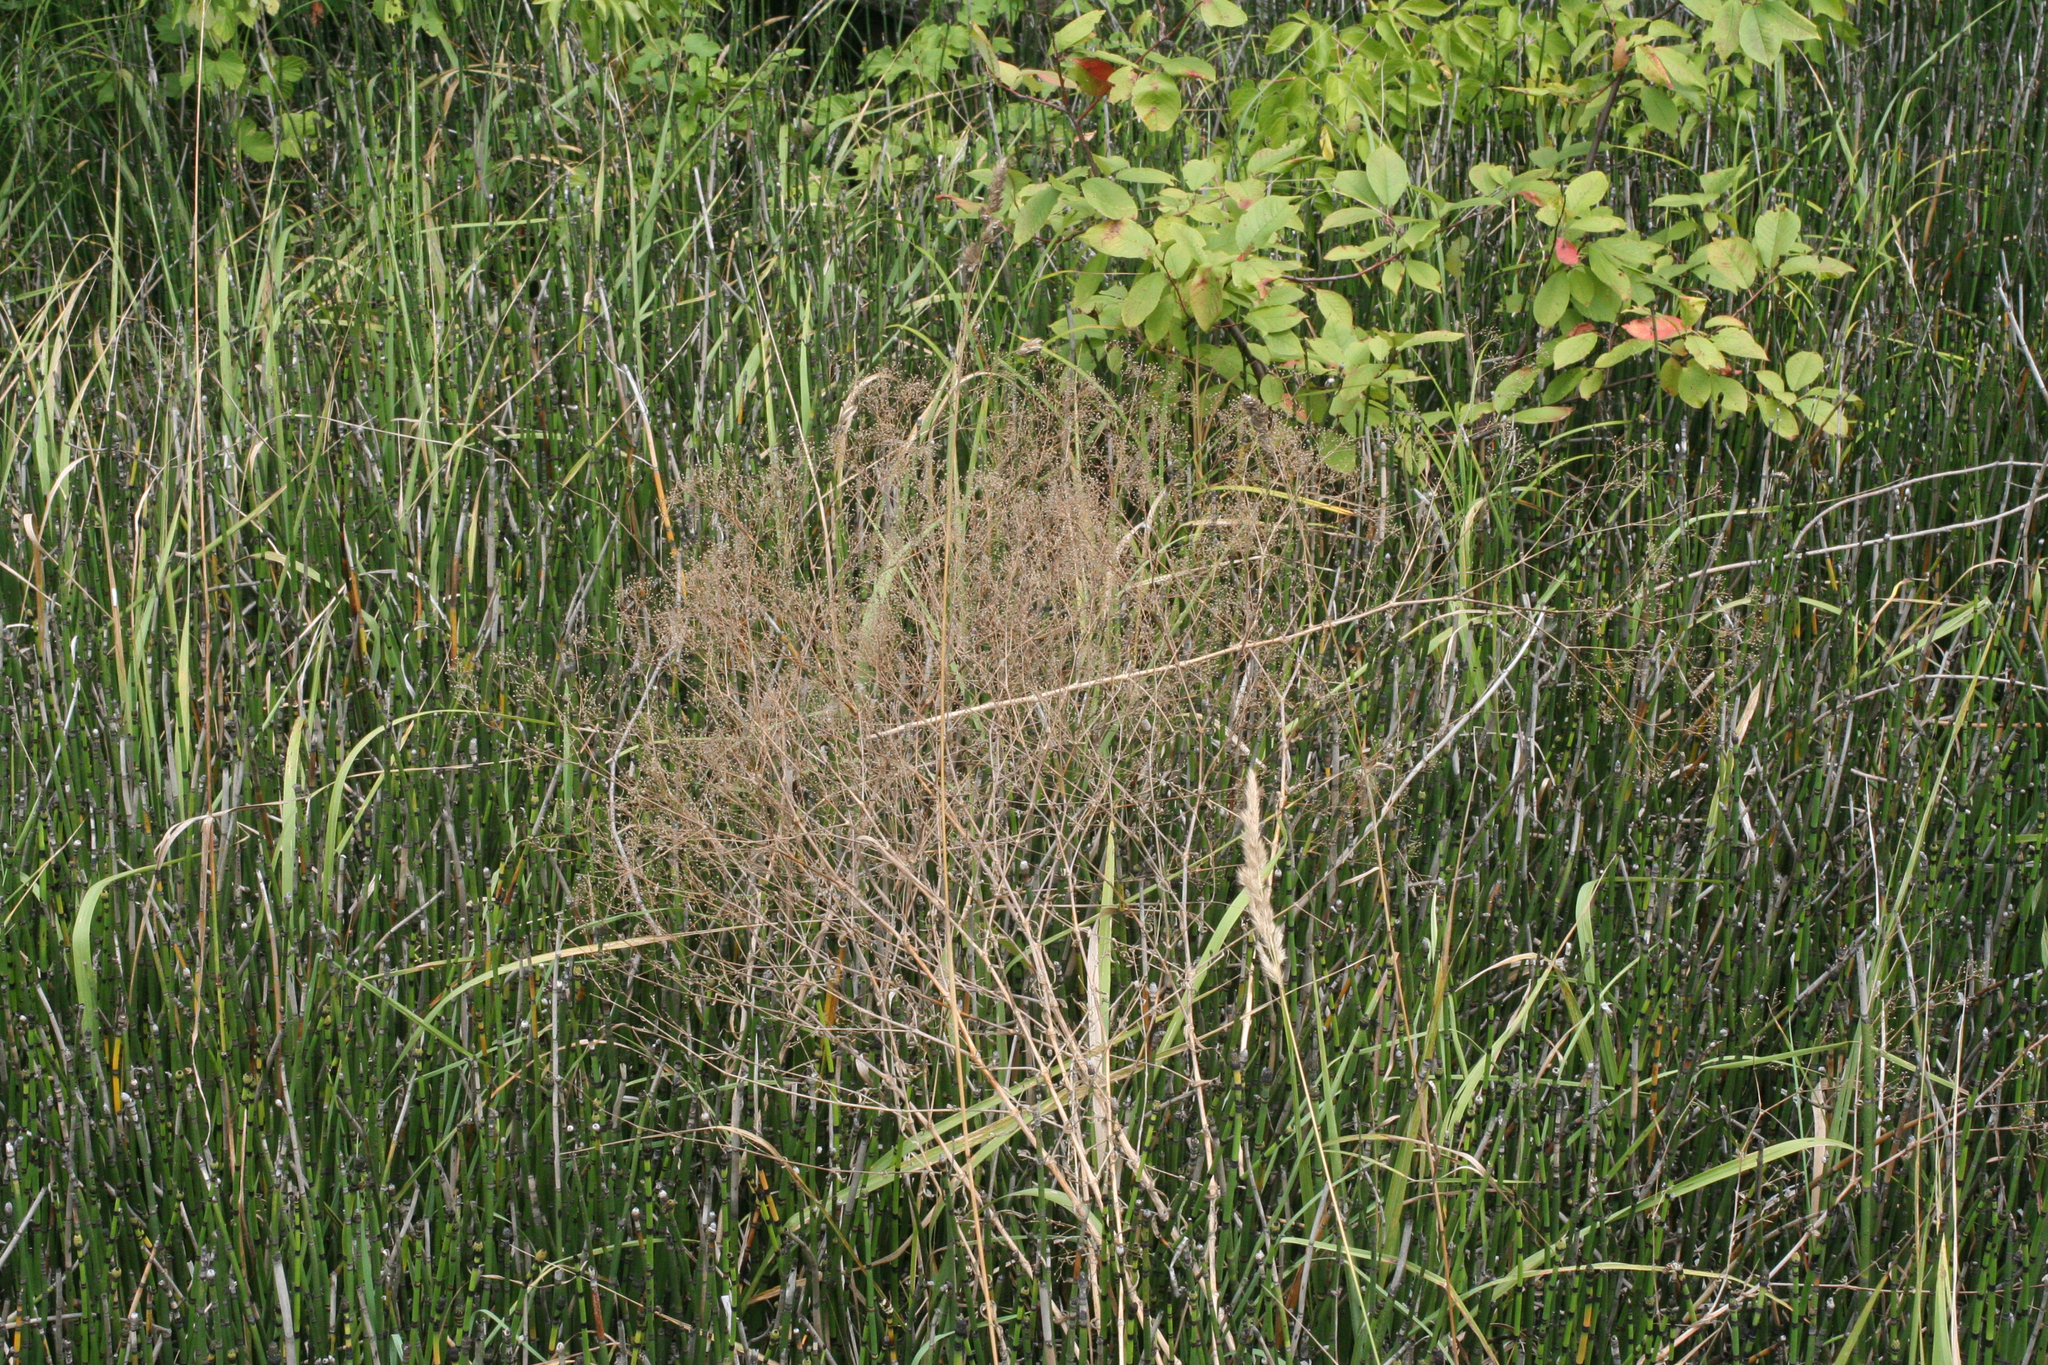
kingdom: Plantae
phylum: Tracheophyta
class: Polypodiopsida
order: Equisetales
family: Equisetaceae
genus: Equisetum
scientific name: Equisetum hyemale
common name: Rough horsetail
